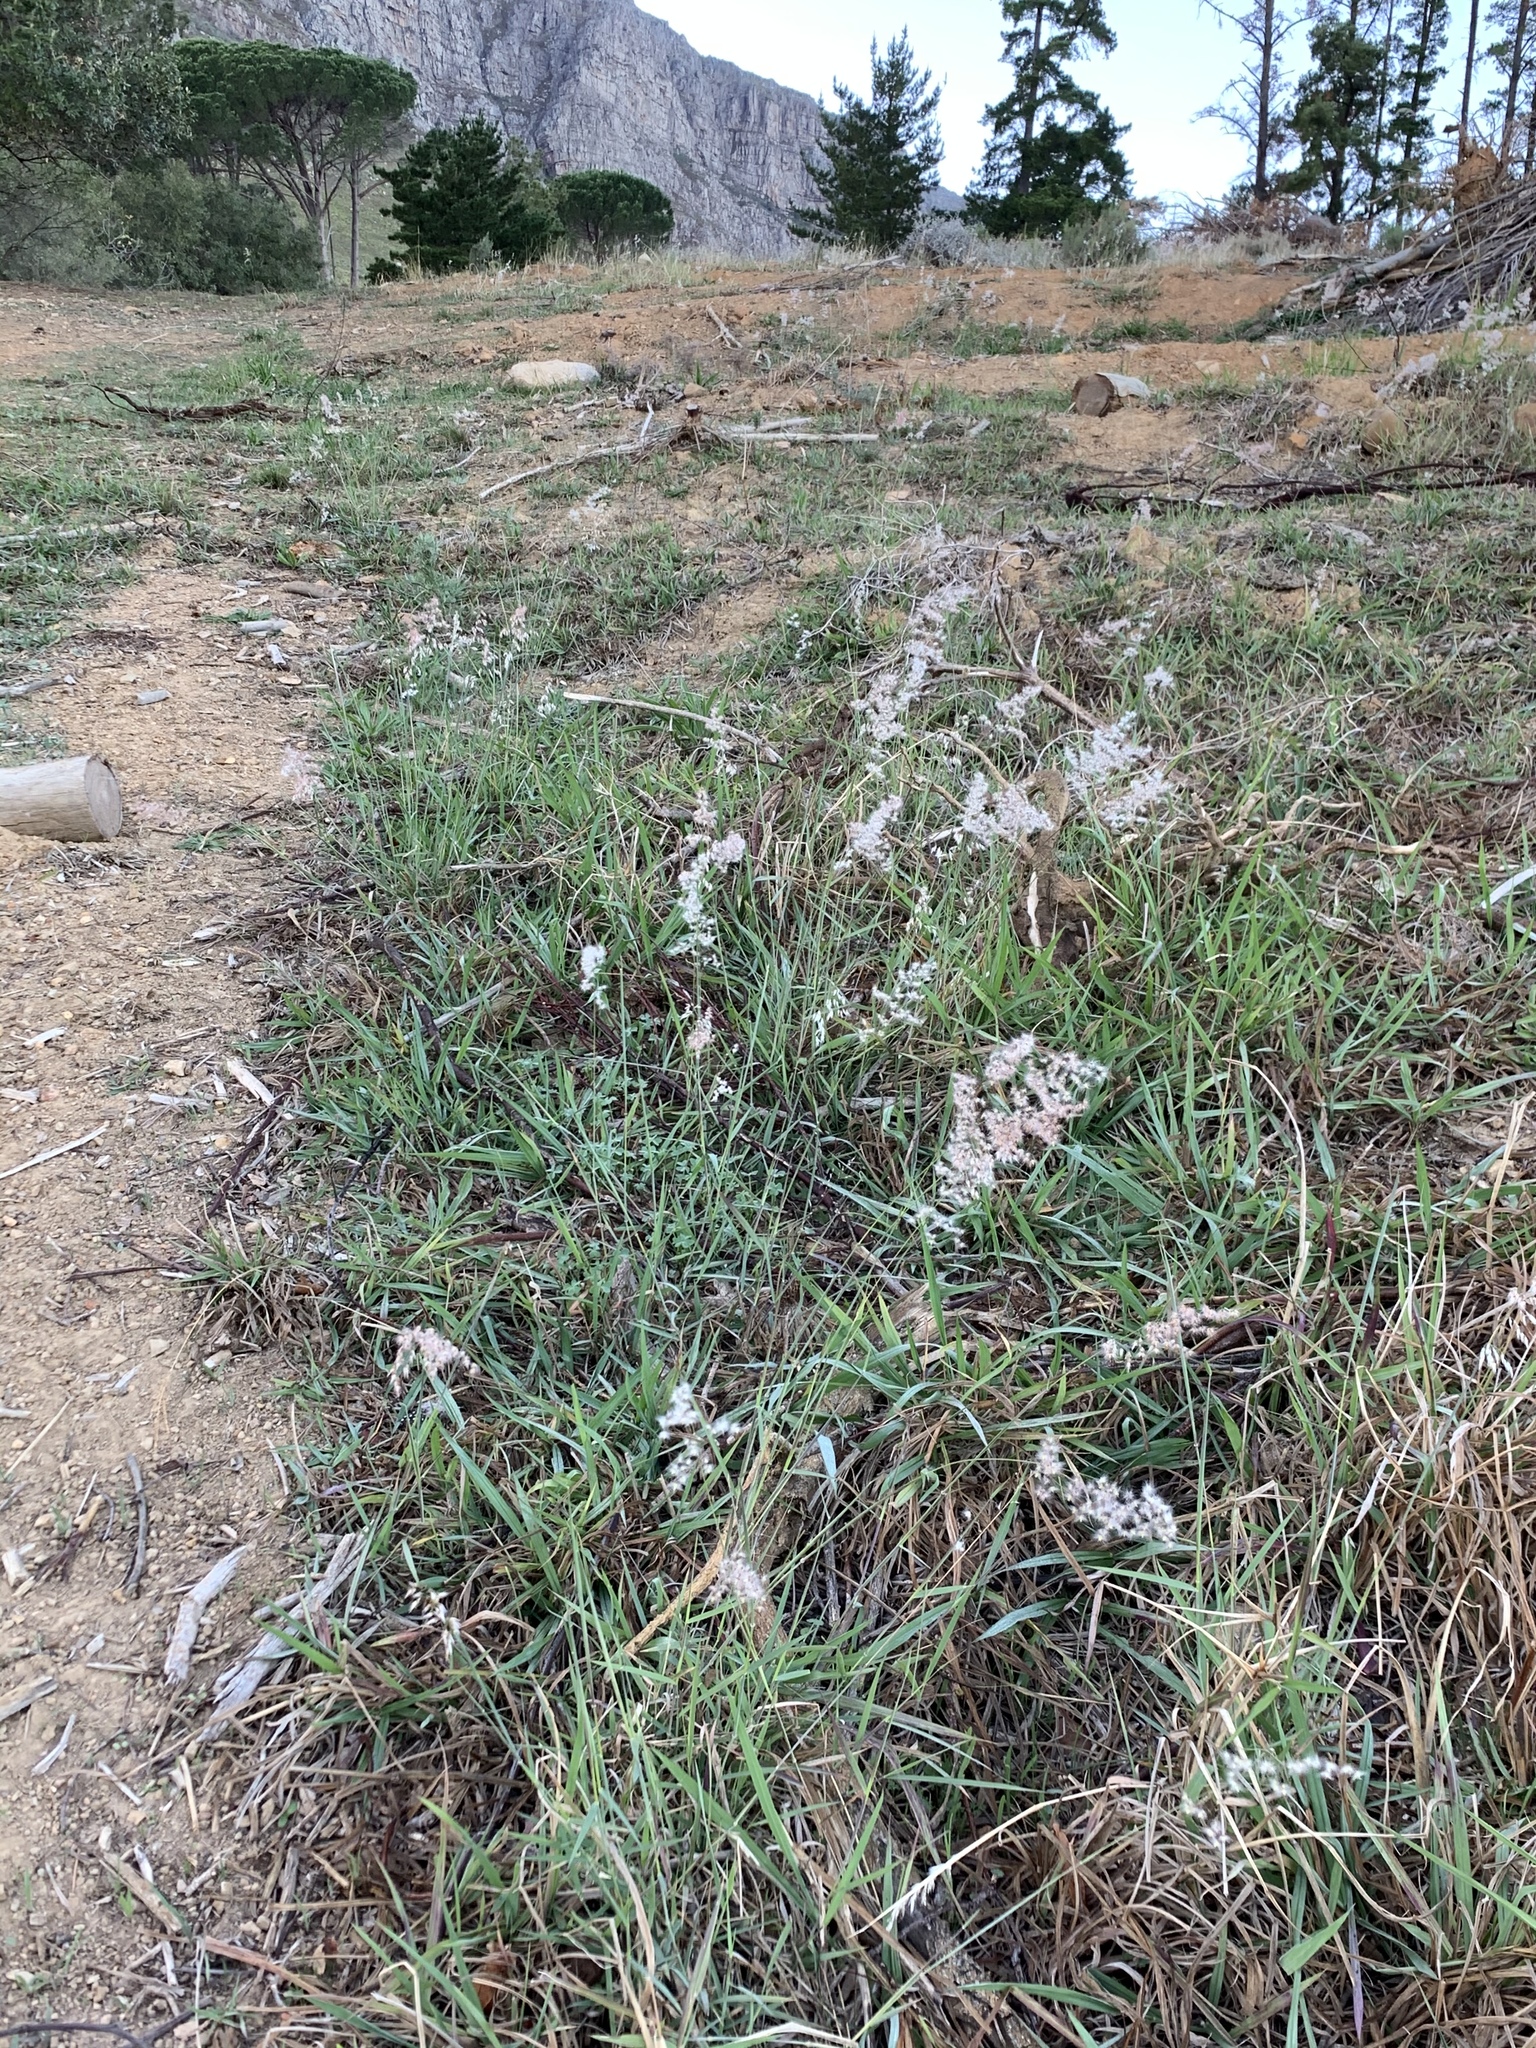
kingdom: Plantae
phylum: Tracheophyta
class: Liliopsida
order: Poales
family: Poaceae
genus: Melinis
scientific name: Melinis repens
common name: Rose natal grass
